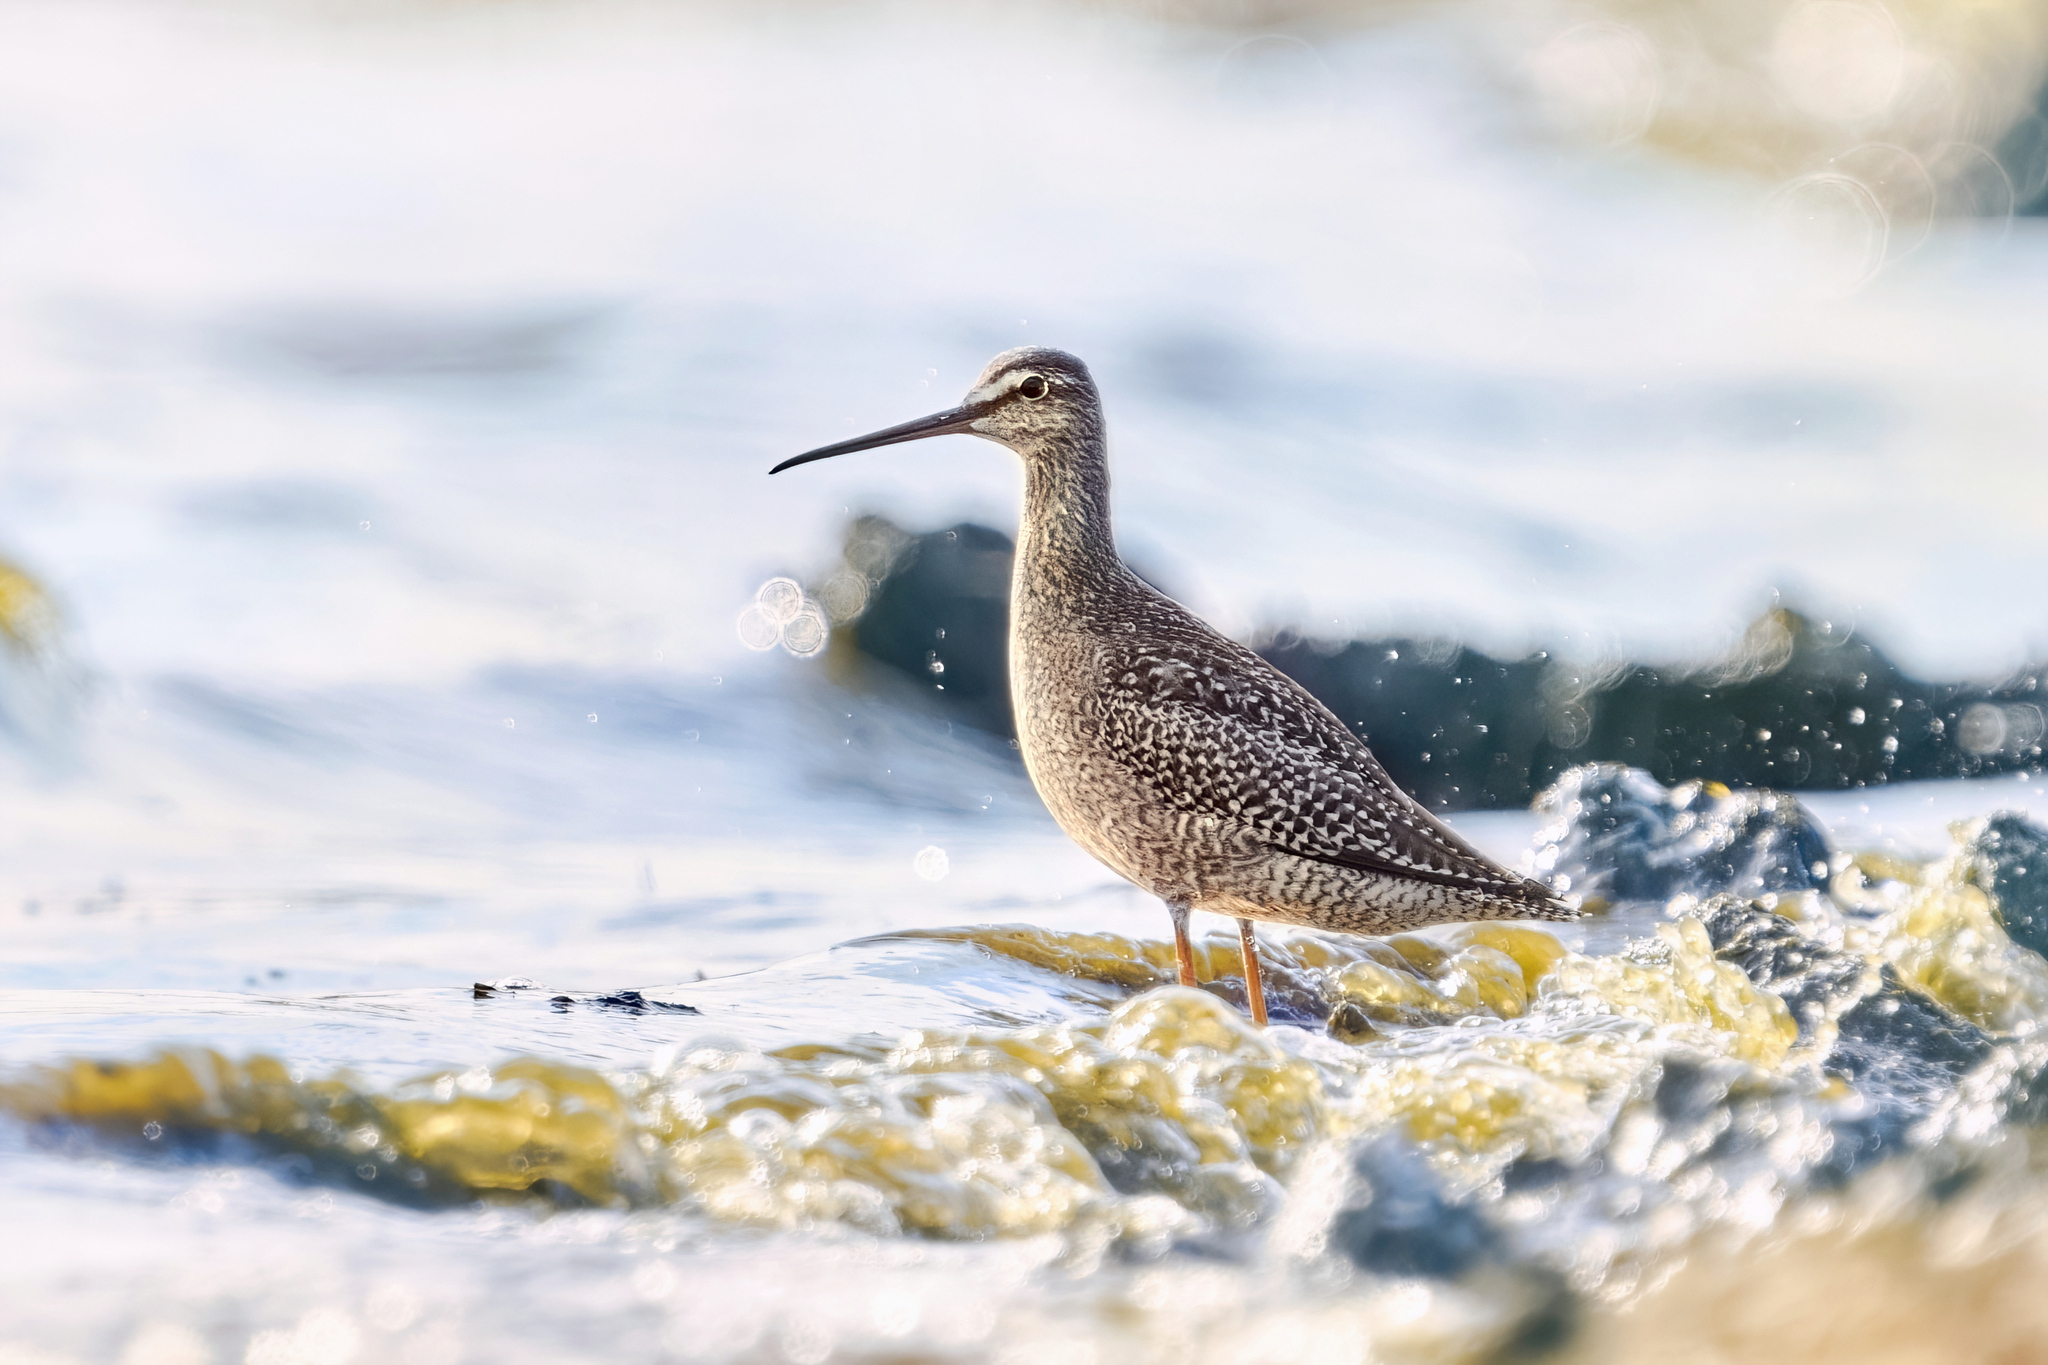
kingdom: Animalia
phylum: Chordata
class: Aves
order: Charadriiformes
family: Scolopacidae
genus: Tringa
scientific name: Tringa erythropus
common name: Spotted redshank
